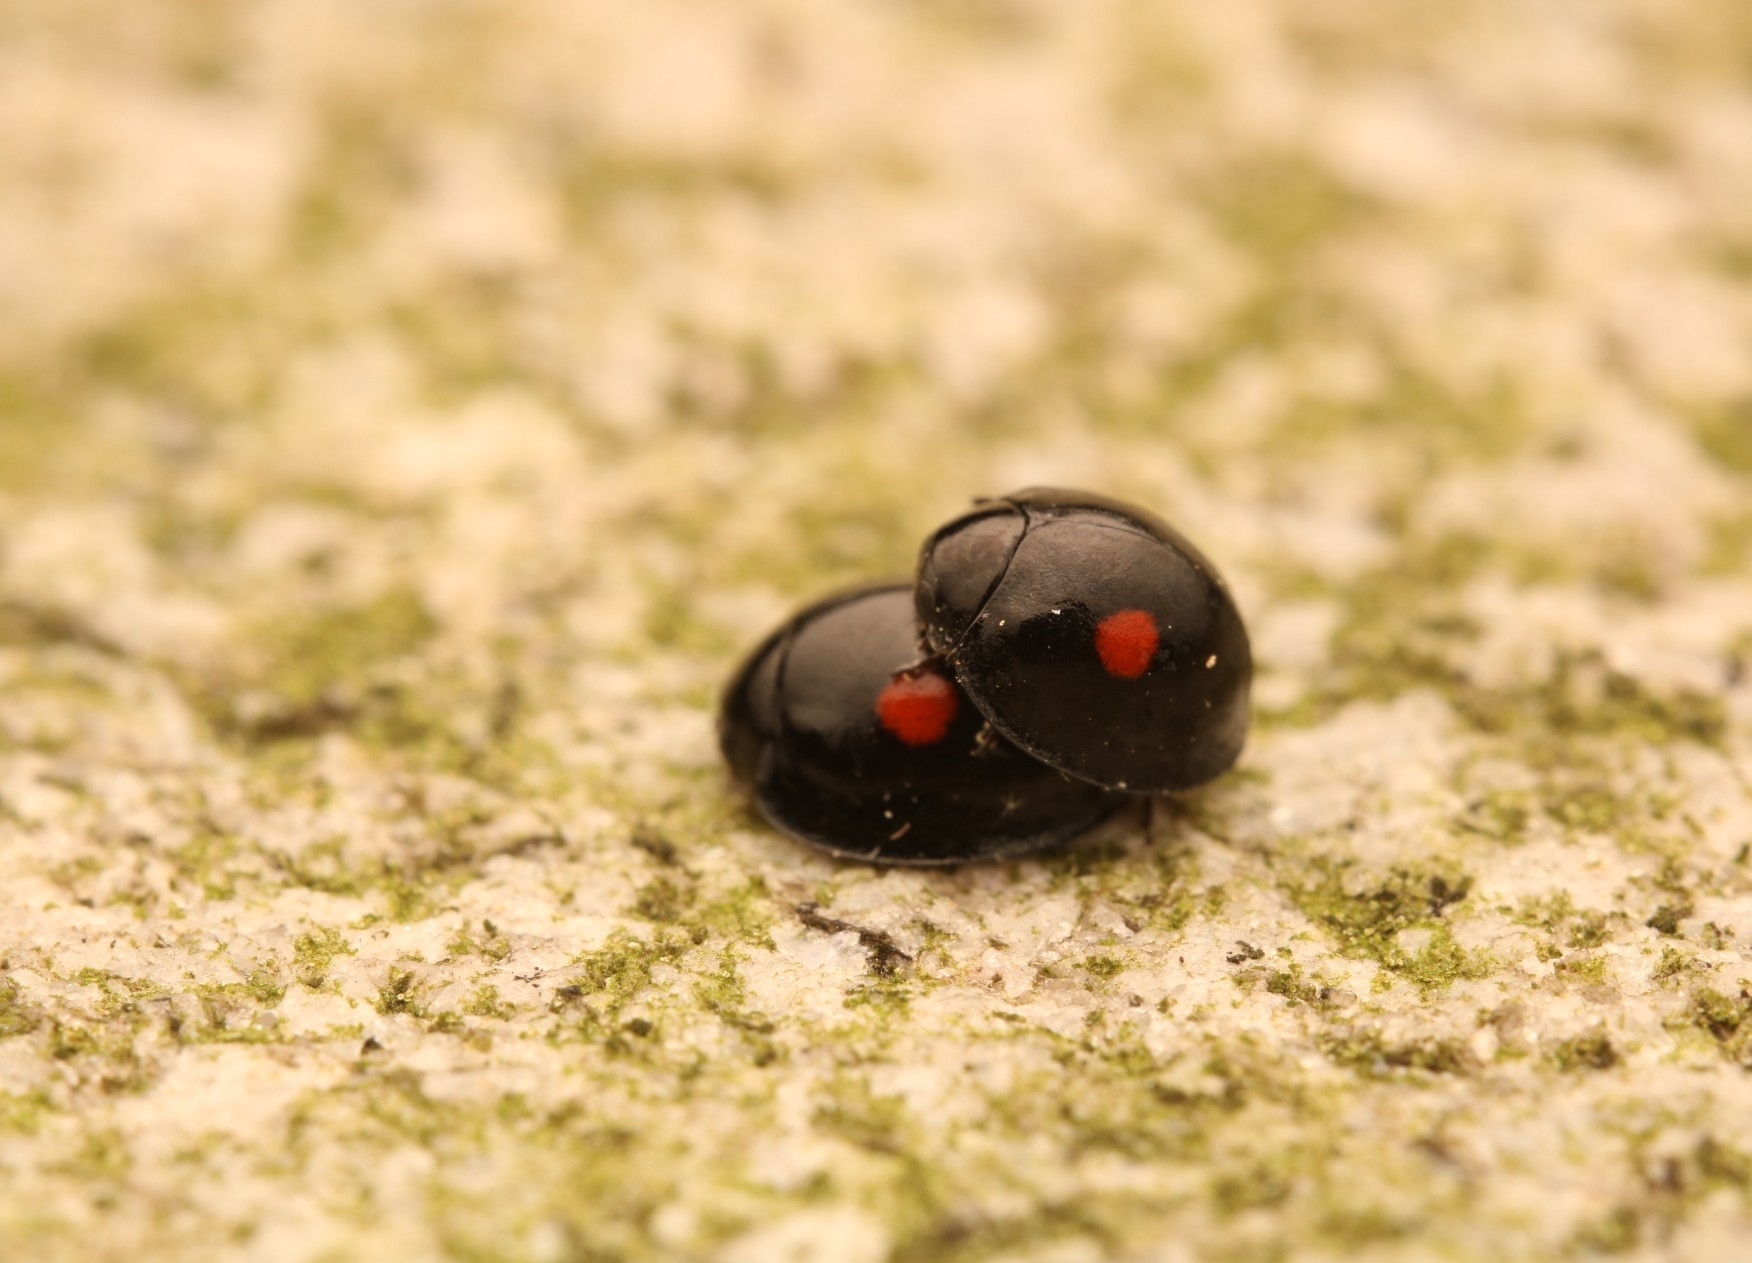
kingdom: Animalia
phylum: Arthropoda
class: Insecta
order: Coleoptera
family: Coccinellidae
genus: Chilocorus
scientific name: Chilocorus stigma
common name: Twicestabbed lady beetle
